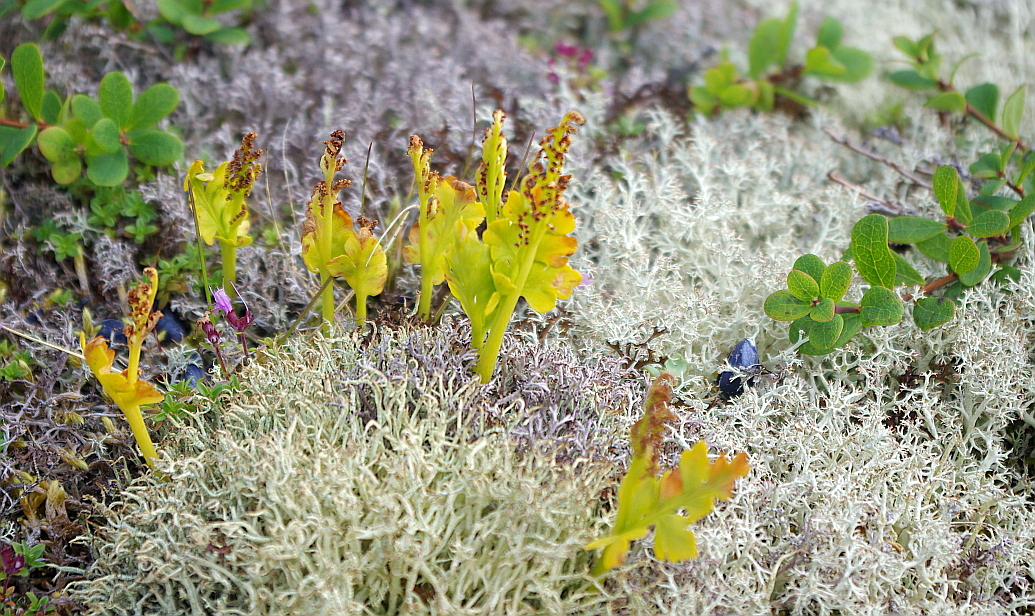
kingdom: Plantae
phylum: Tracheophyta
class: Polypodiopsida
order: Ophioglossales
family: Ophioglossaceae
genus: Botrychium
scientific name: Botrychium boreale
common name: Boreal moonwort
